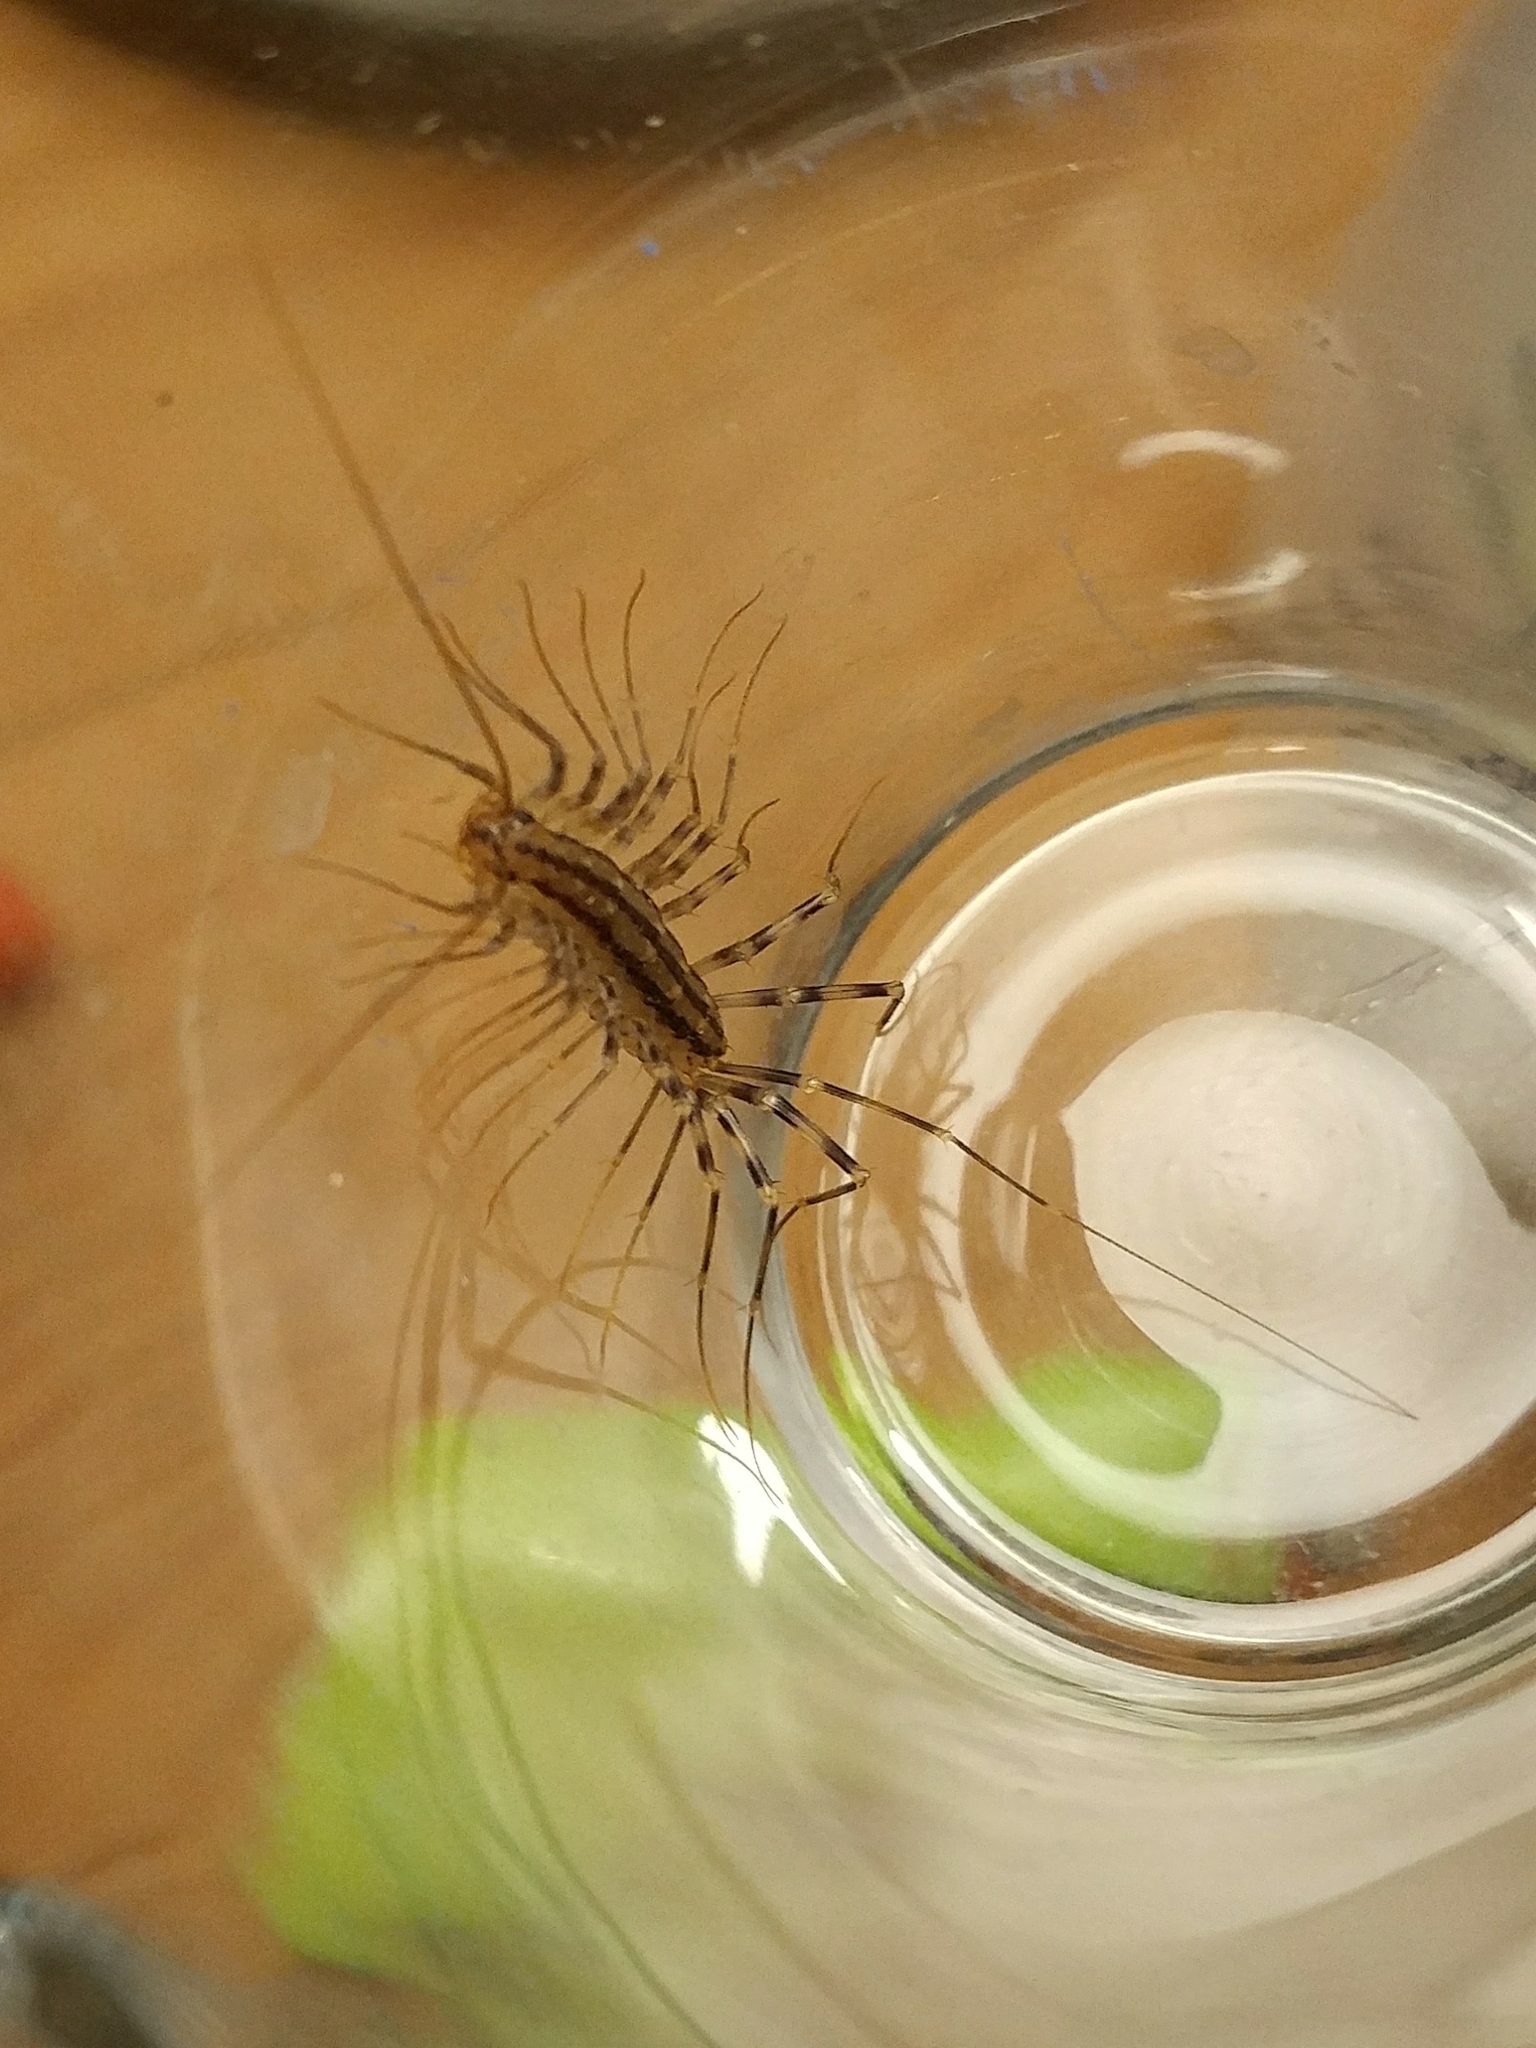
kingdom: Animalia
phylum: Arthropoda
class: Chilopoda
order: Scutigeromorpha
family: Scutigeridae
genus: Scutigera
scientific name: Scutigera coleoptrata
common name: House centipede
